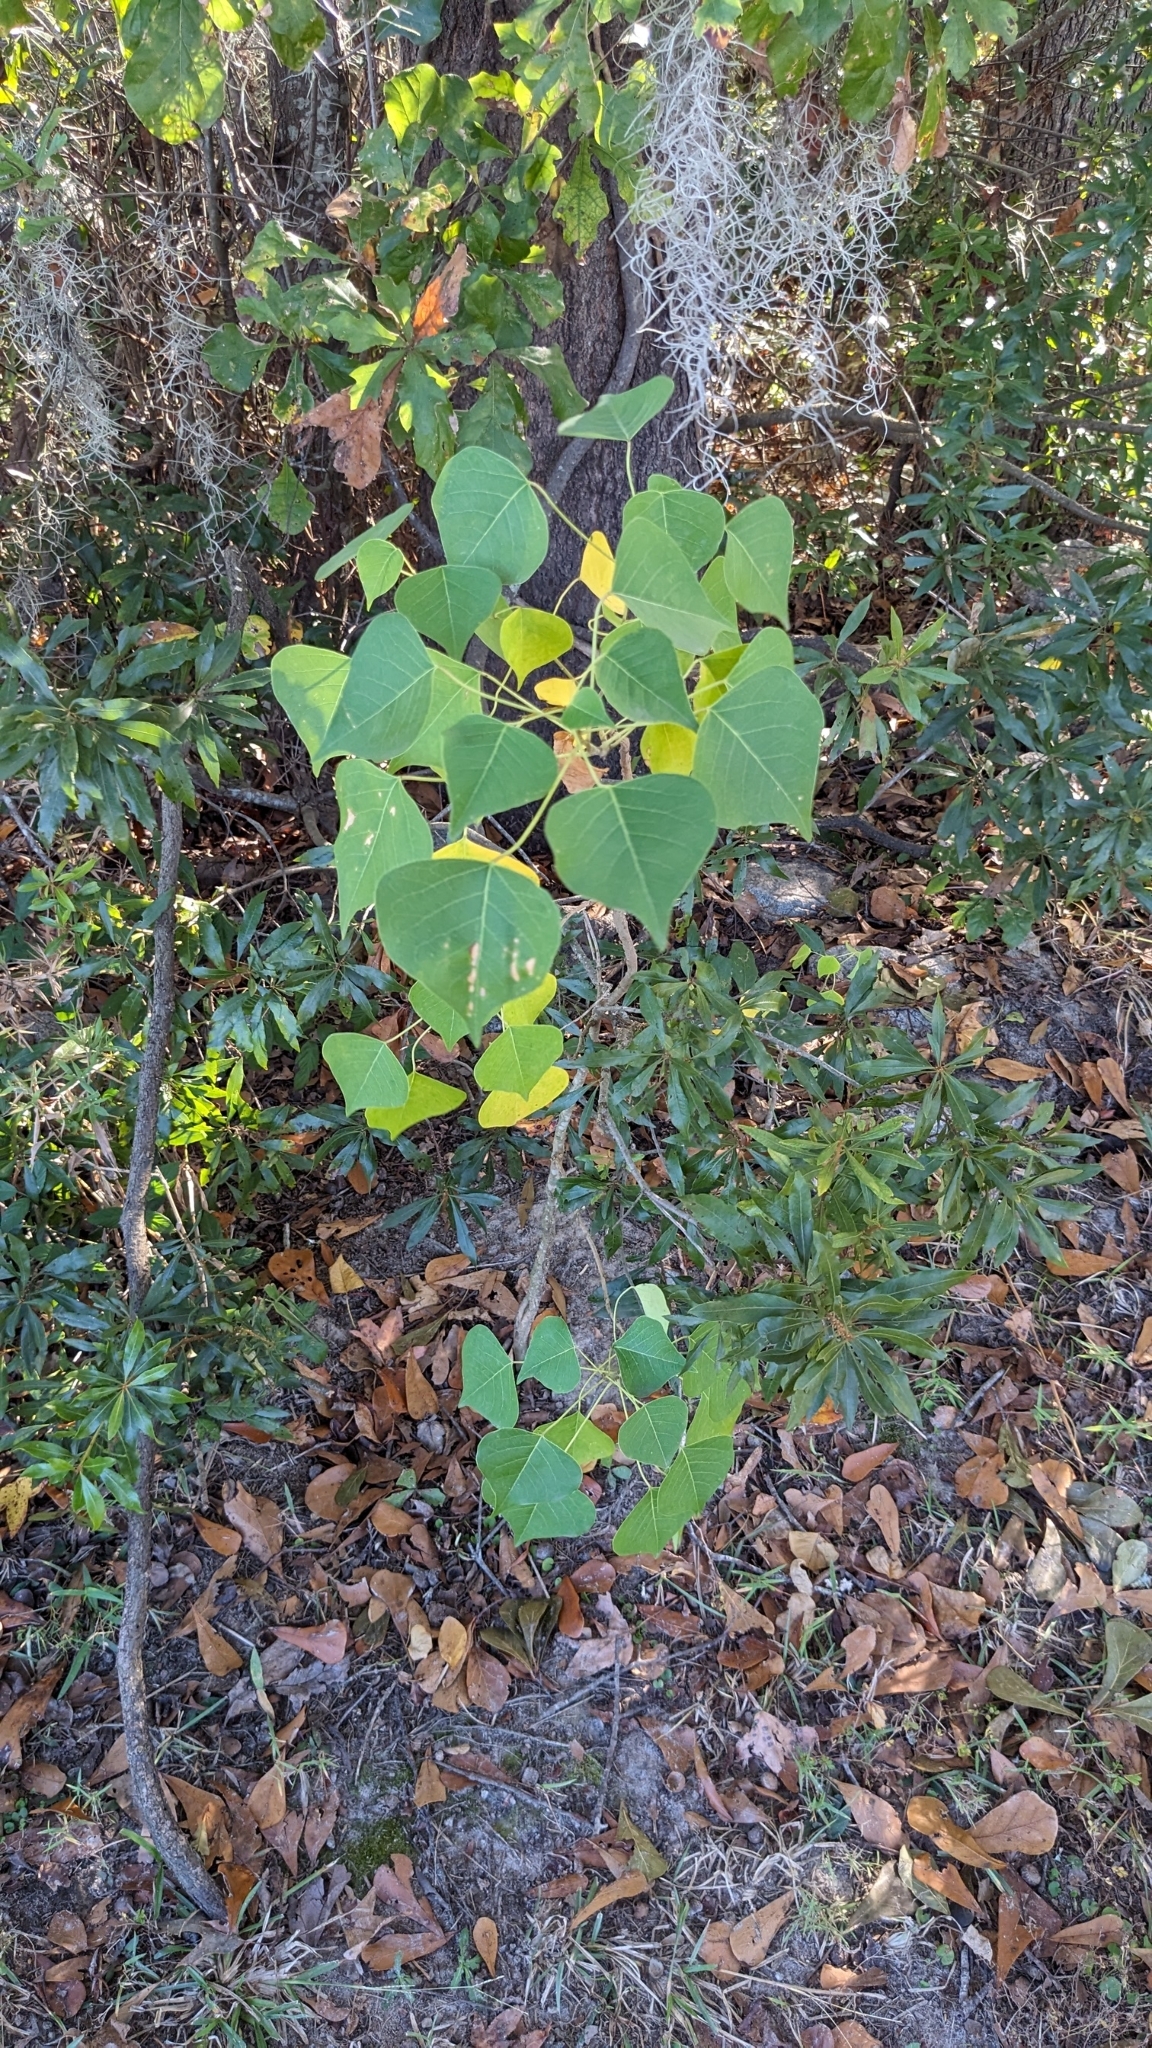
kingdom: Plantae
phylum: Tracheophyta
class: Magnoliopsida
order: Malpighiales
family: Euphorbiaceae
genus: Triadica
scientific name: Triadica sebifera
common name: Chinese tallow
